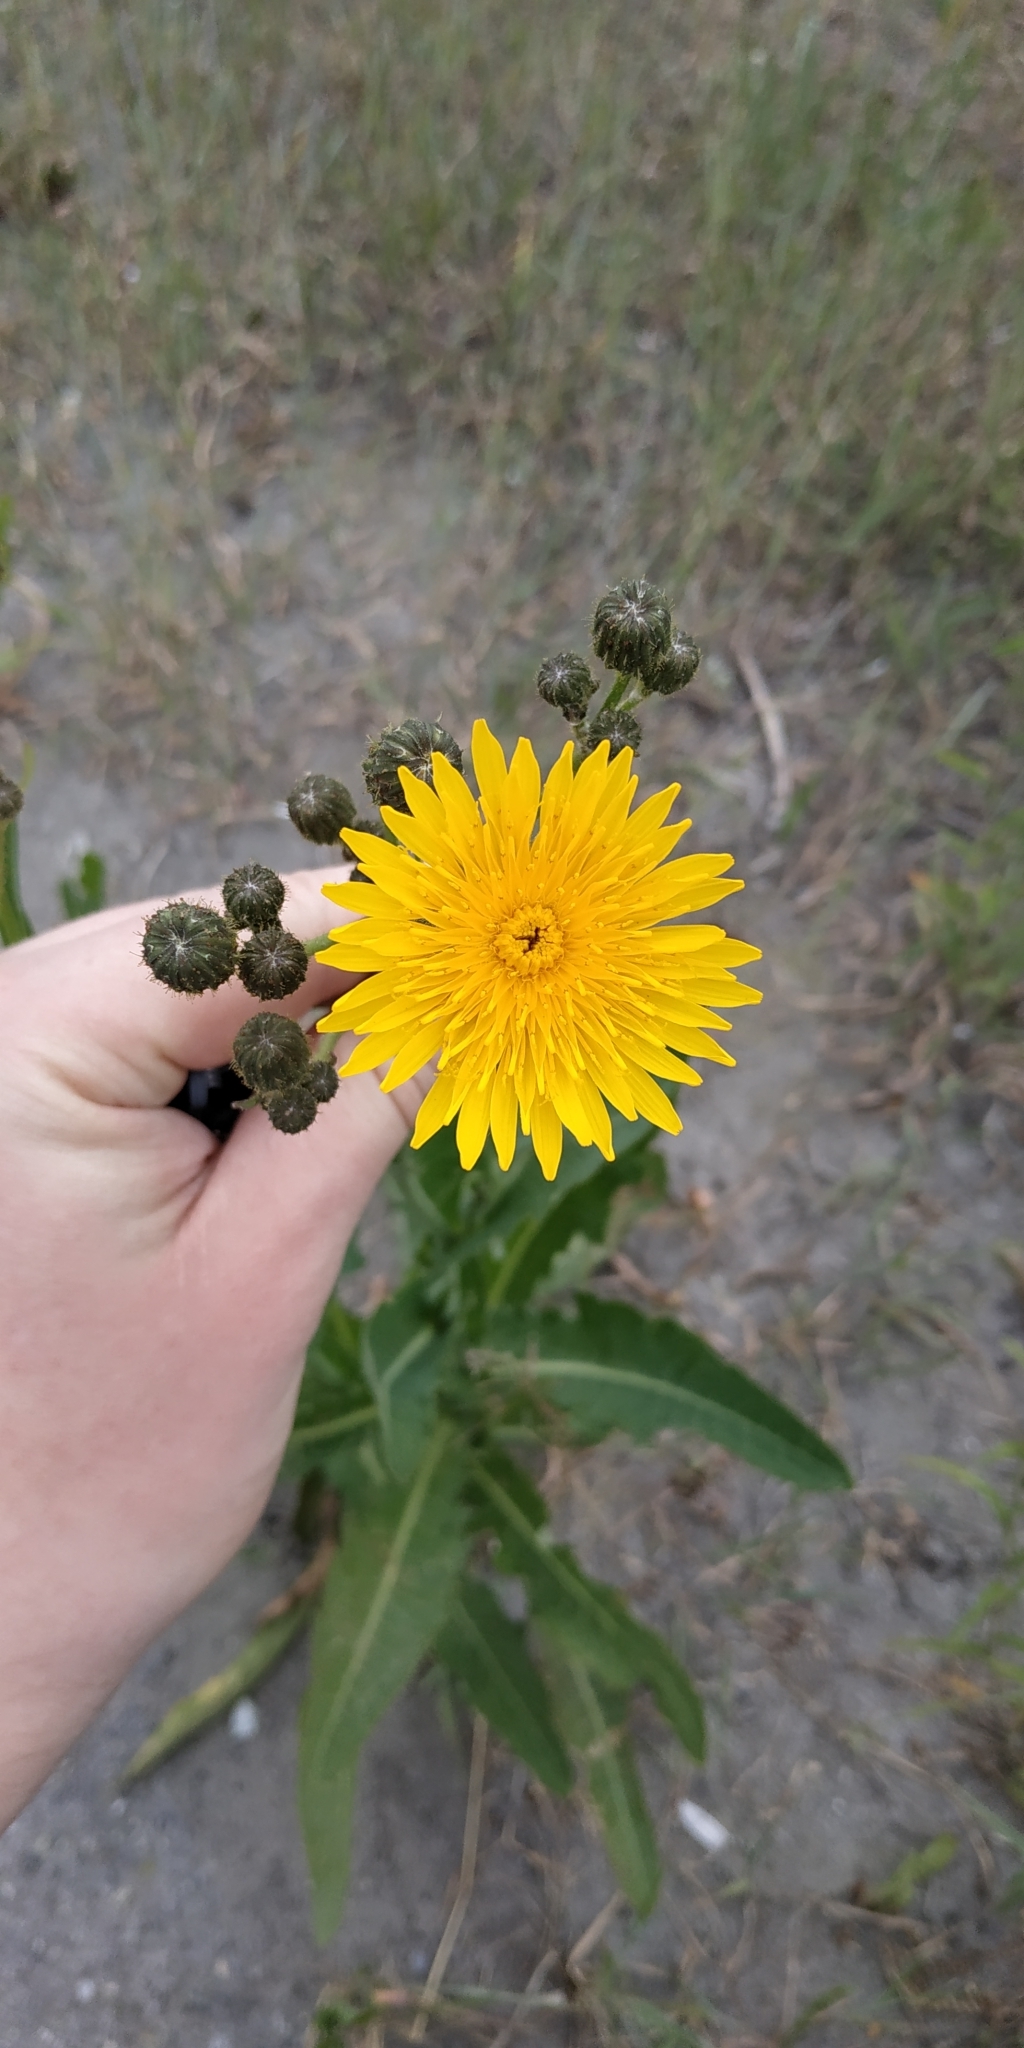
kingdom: Plantae
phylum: Tracheophyta
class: Magnoliopsida
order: Asterales
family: Asteraceae
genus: Sonchus
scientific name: Sonchus arvensis
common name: Perennial sow-thistle
